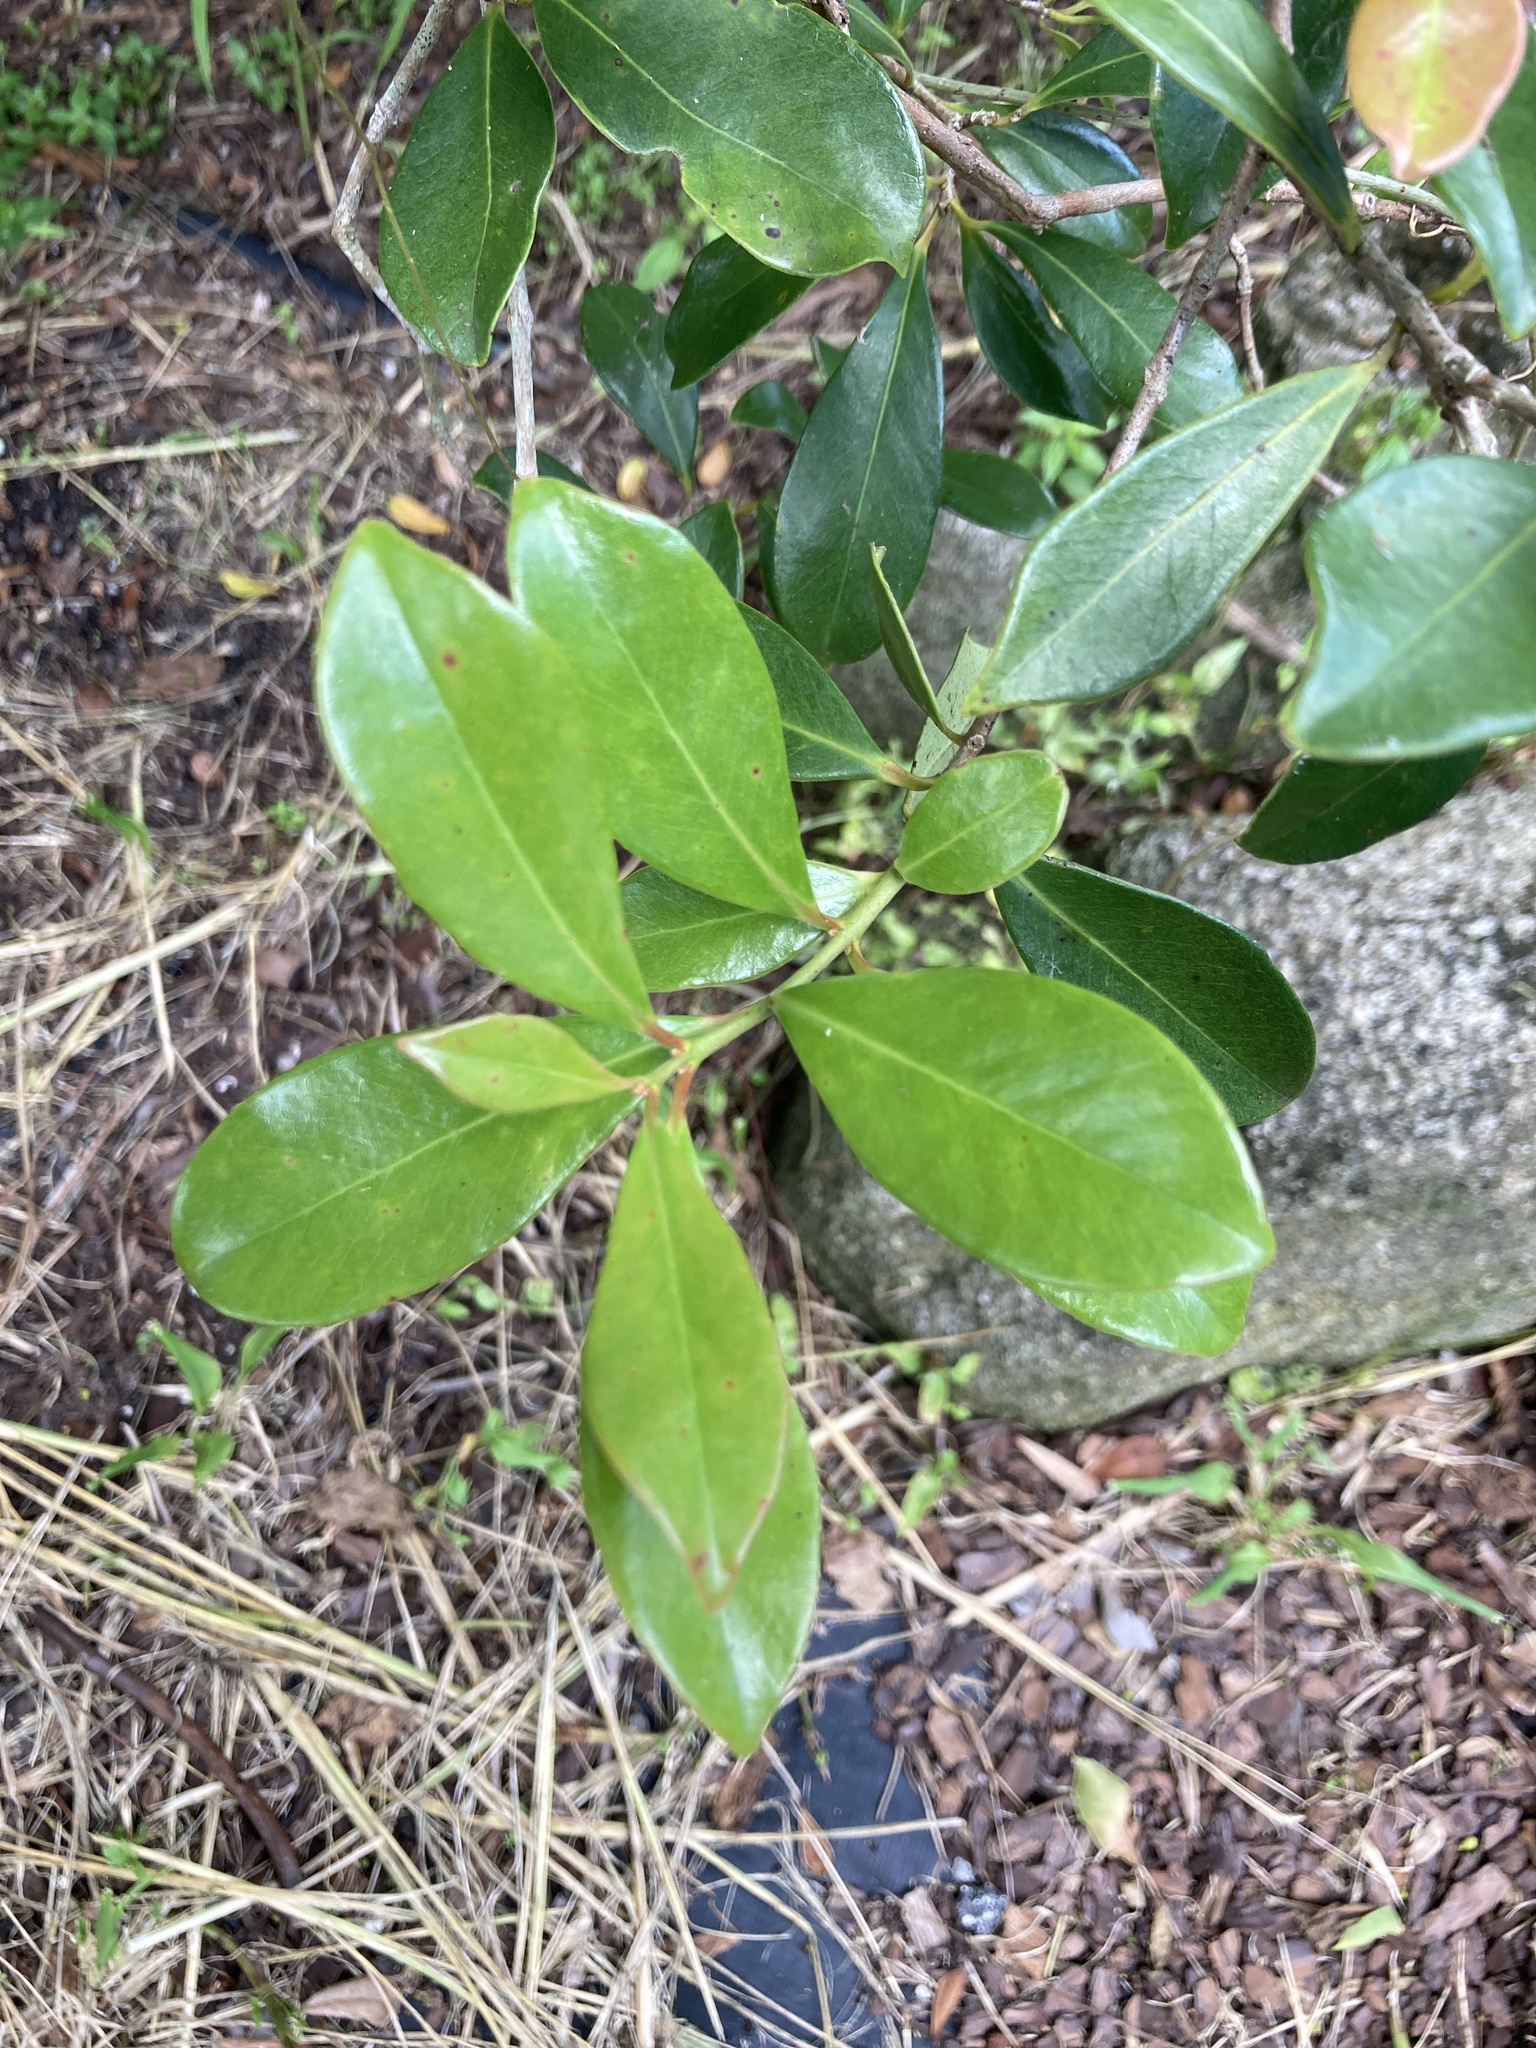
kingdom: Plantae
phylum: Tracheophyta
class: Magnoliopsida
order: Myrtales
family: Myrtaceae
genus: Psidium
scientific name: Psidium cattleianum
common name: Strawberry guava
